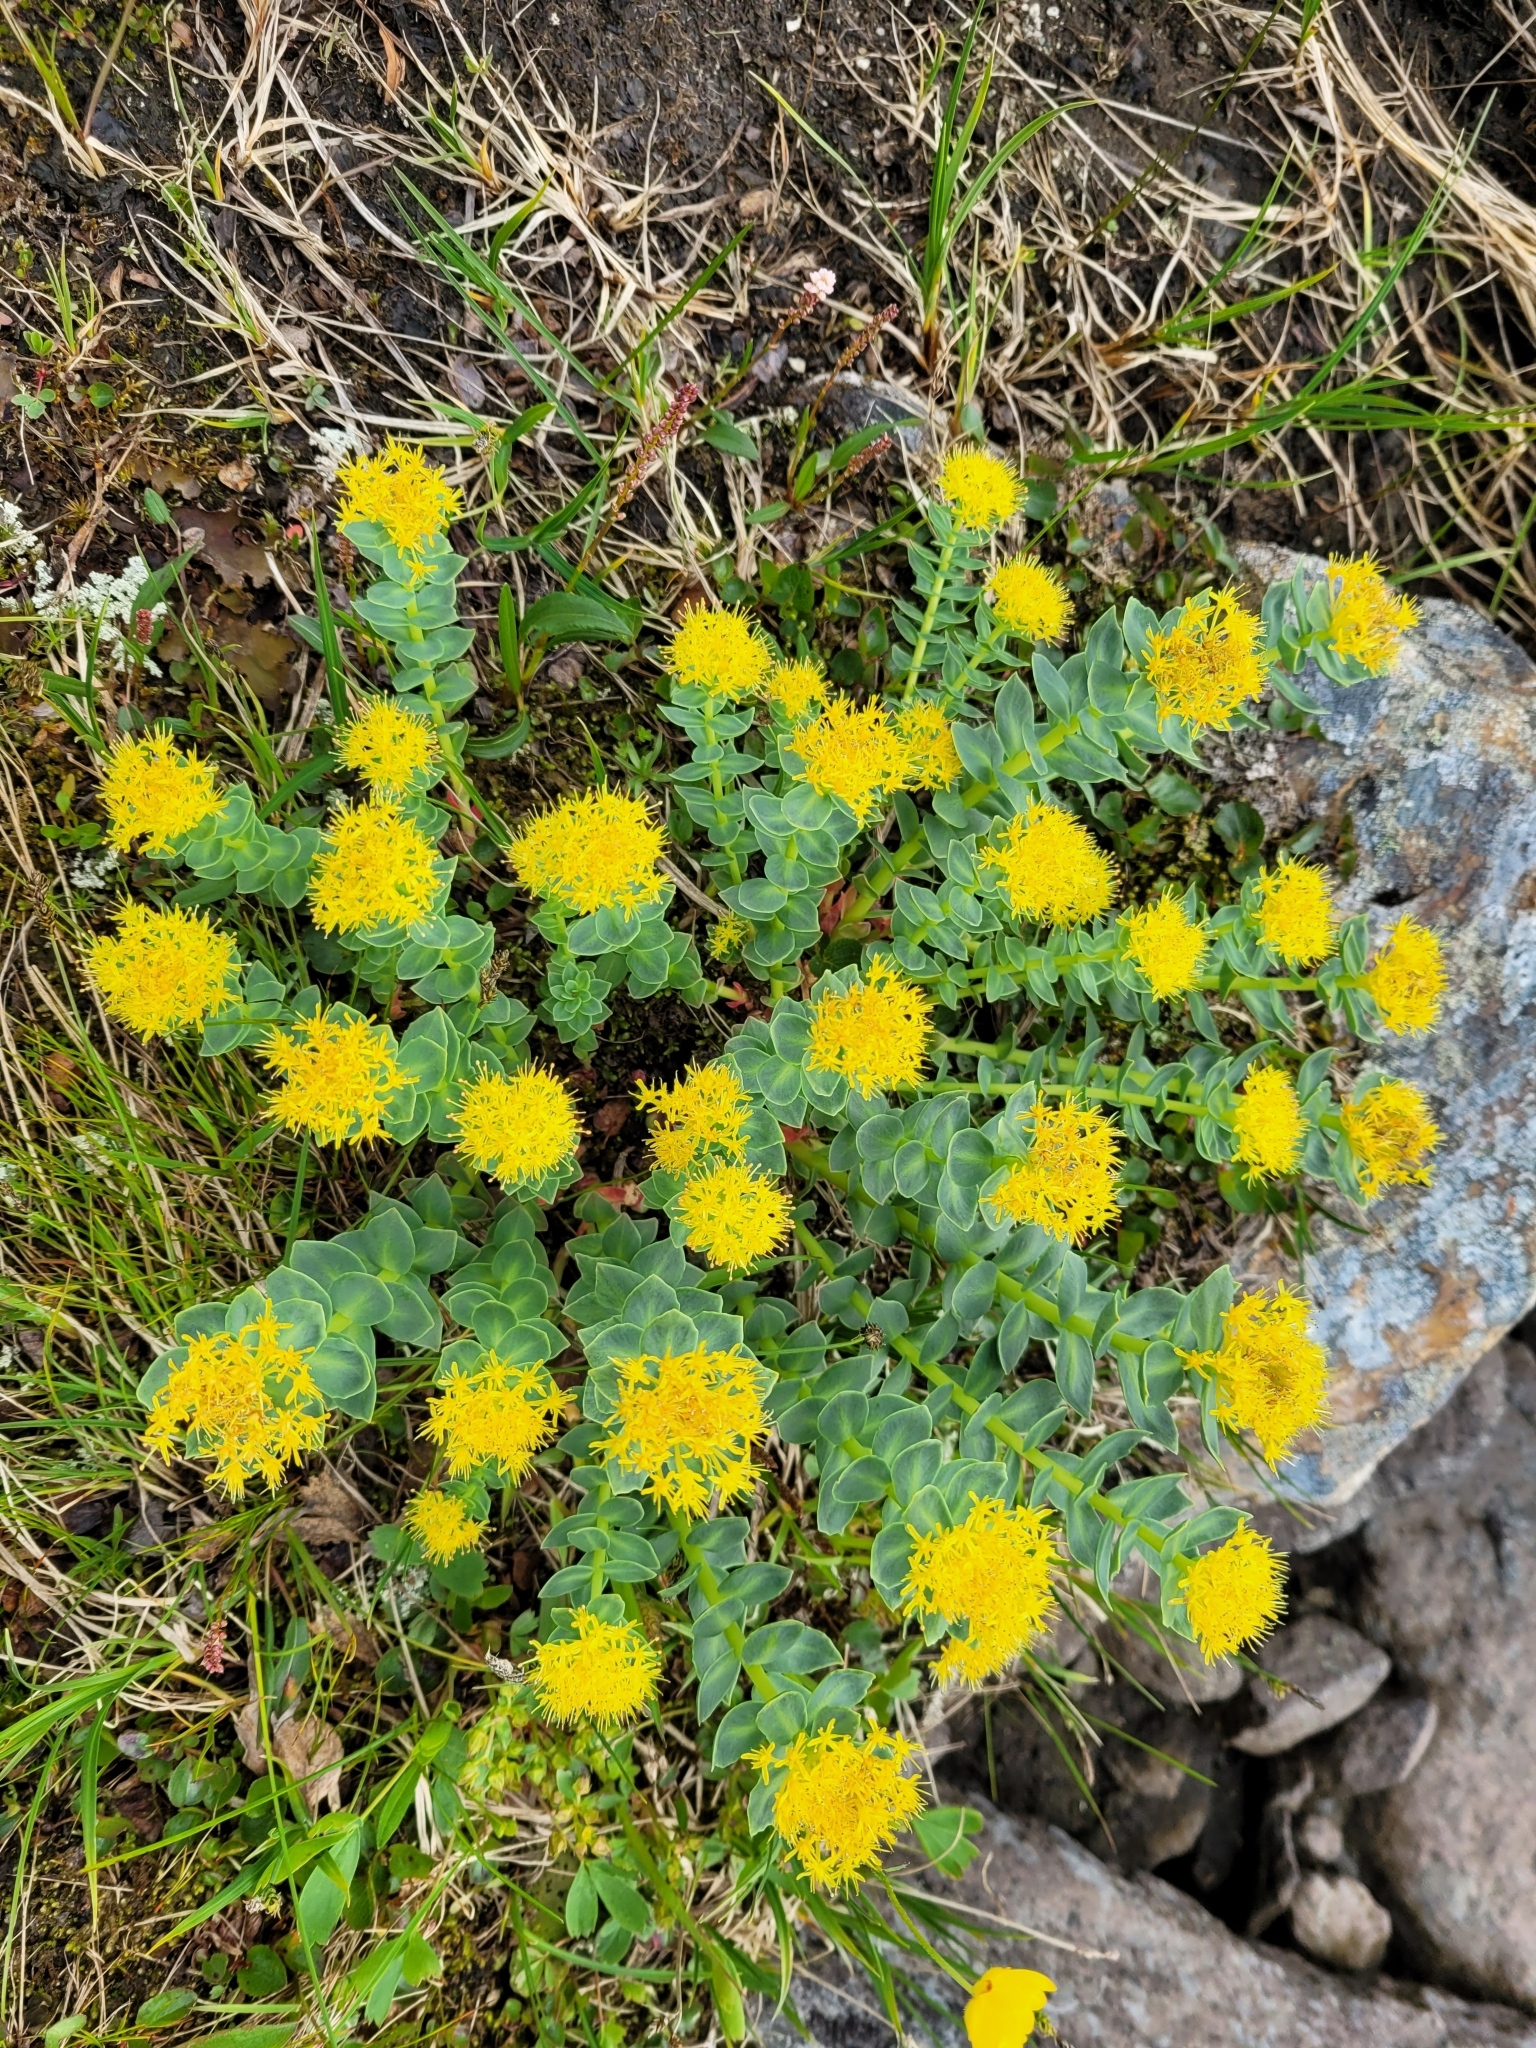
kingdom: Plantae
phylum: Tracheophyta
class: Magnoliopsida
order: Saxifragales
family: Crassulaceae
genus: Rhodiola
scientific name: Rhodiola rosea
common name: Roseroot
